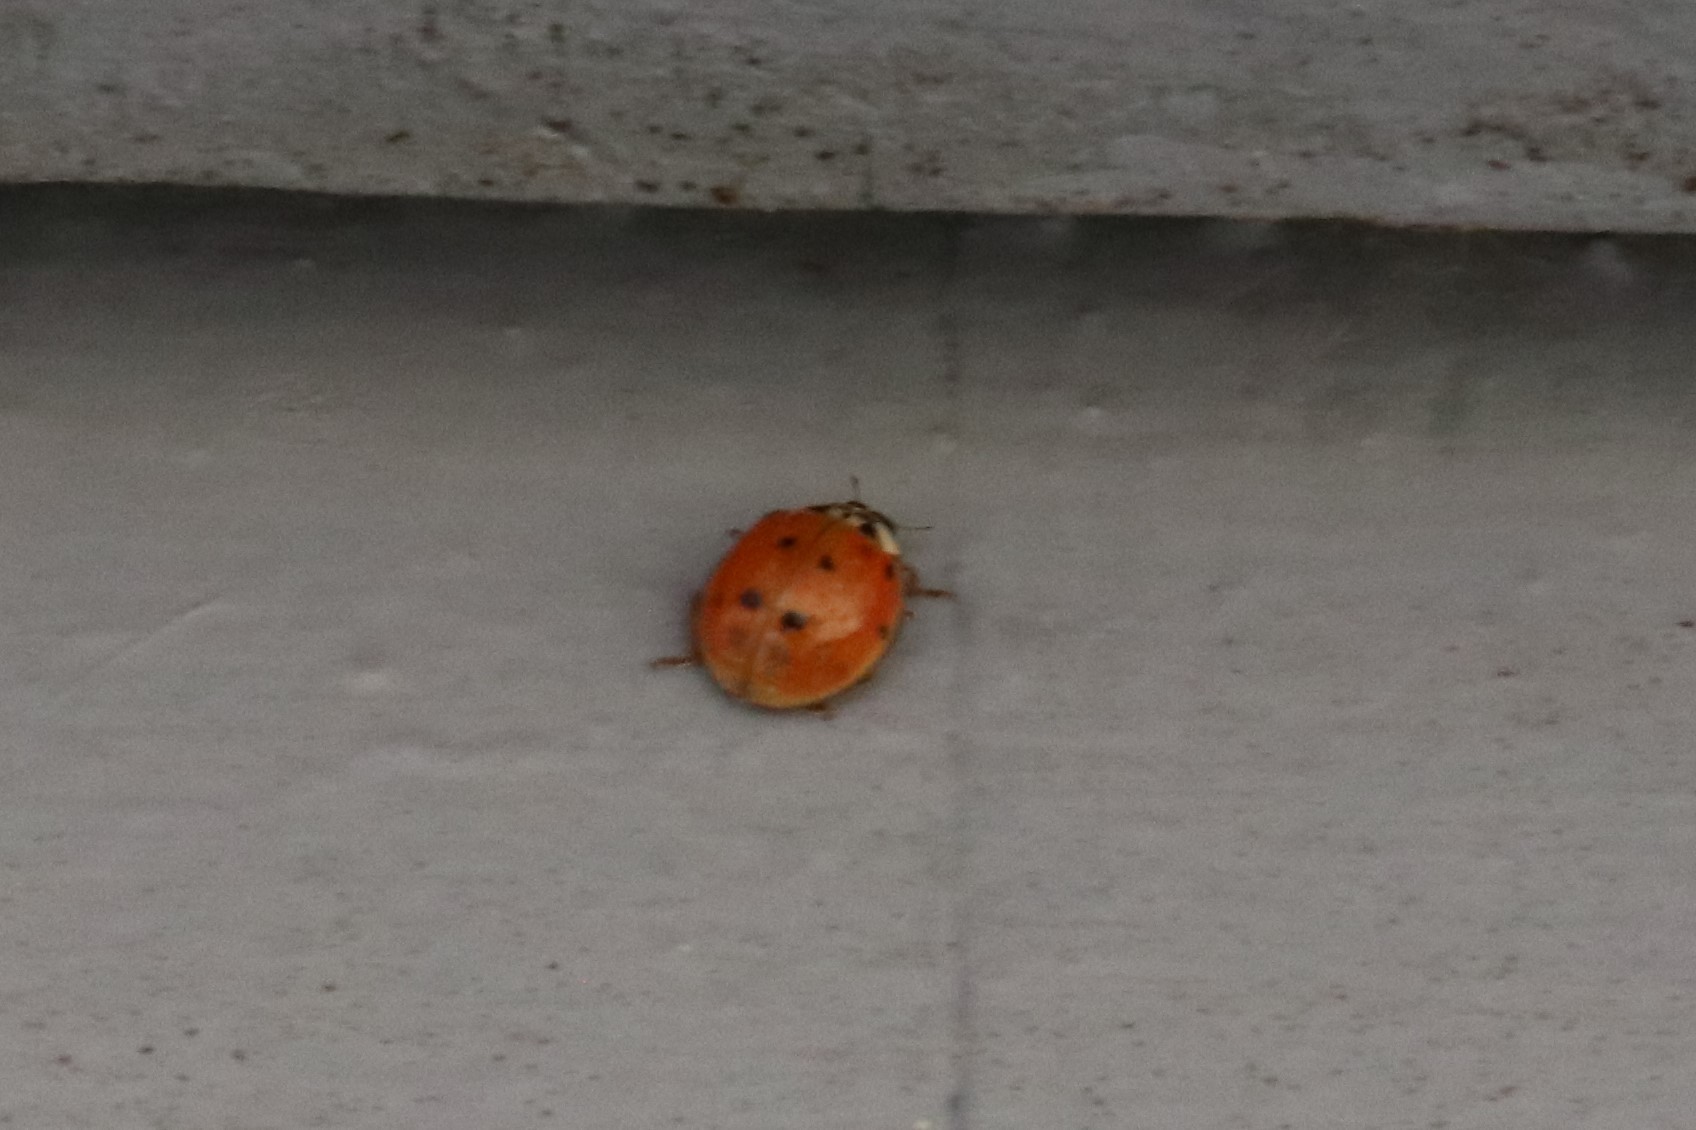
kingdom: Animalia
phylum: Arthropoda
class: Insecta
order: Coleoptera
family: Coccinellidae
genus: Harmonia
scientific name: Harmonia axyridis
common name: Harlequin ladybird
